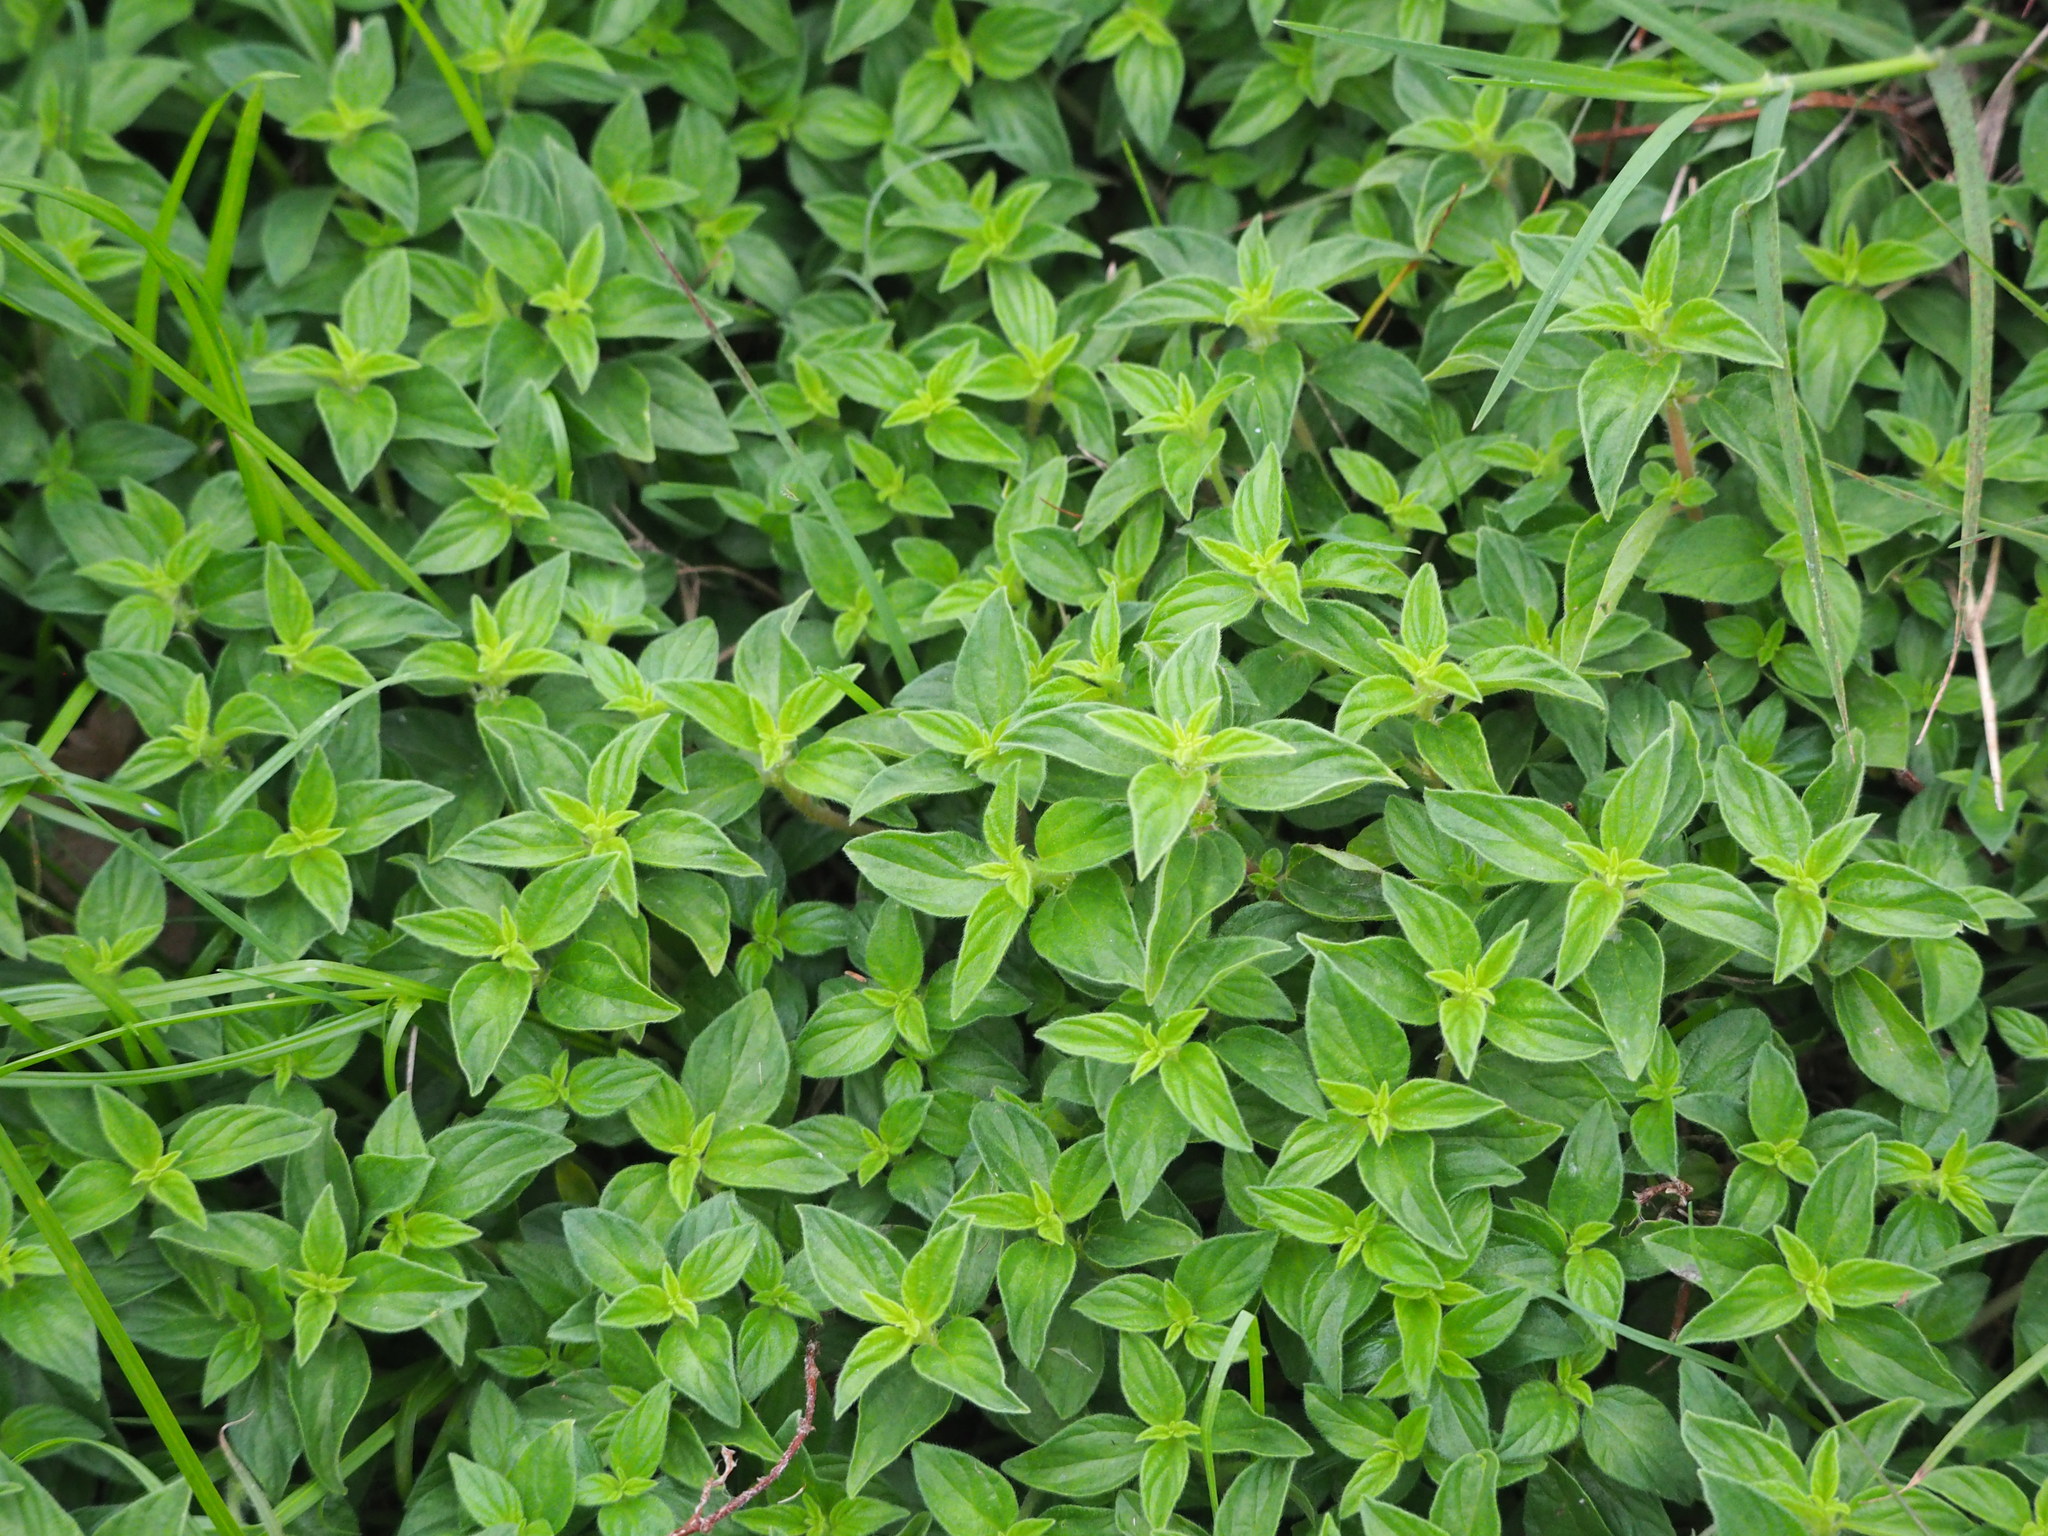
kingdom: Plantae
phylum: Tracheophyta
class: Magnoliopsida
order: Rosales
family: Urticaceae
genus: Pouzolzia
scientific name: Pouzolzia zeylanica
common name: Graceful pouzolzsbush
